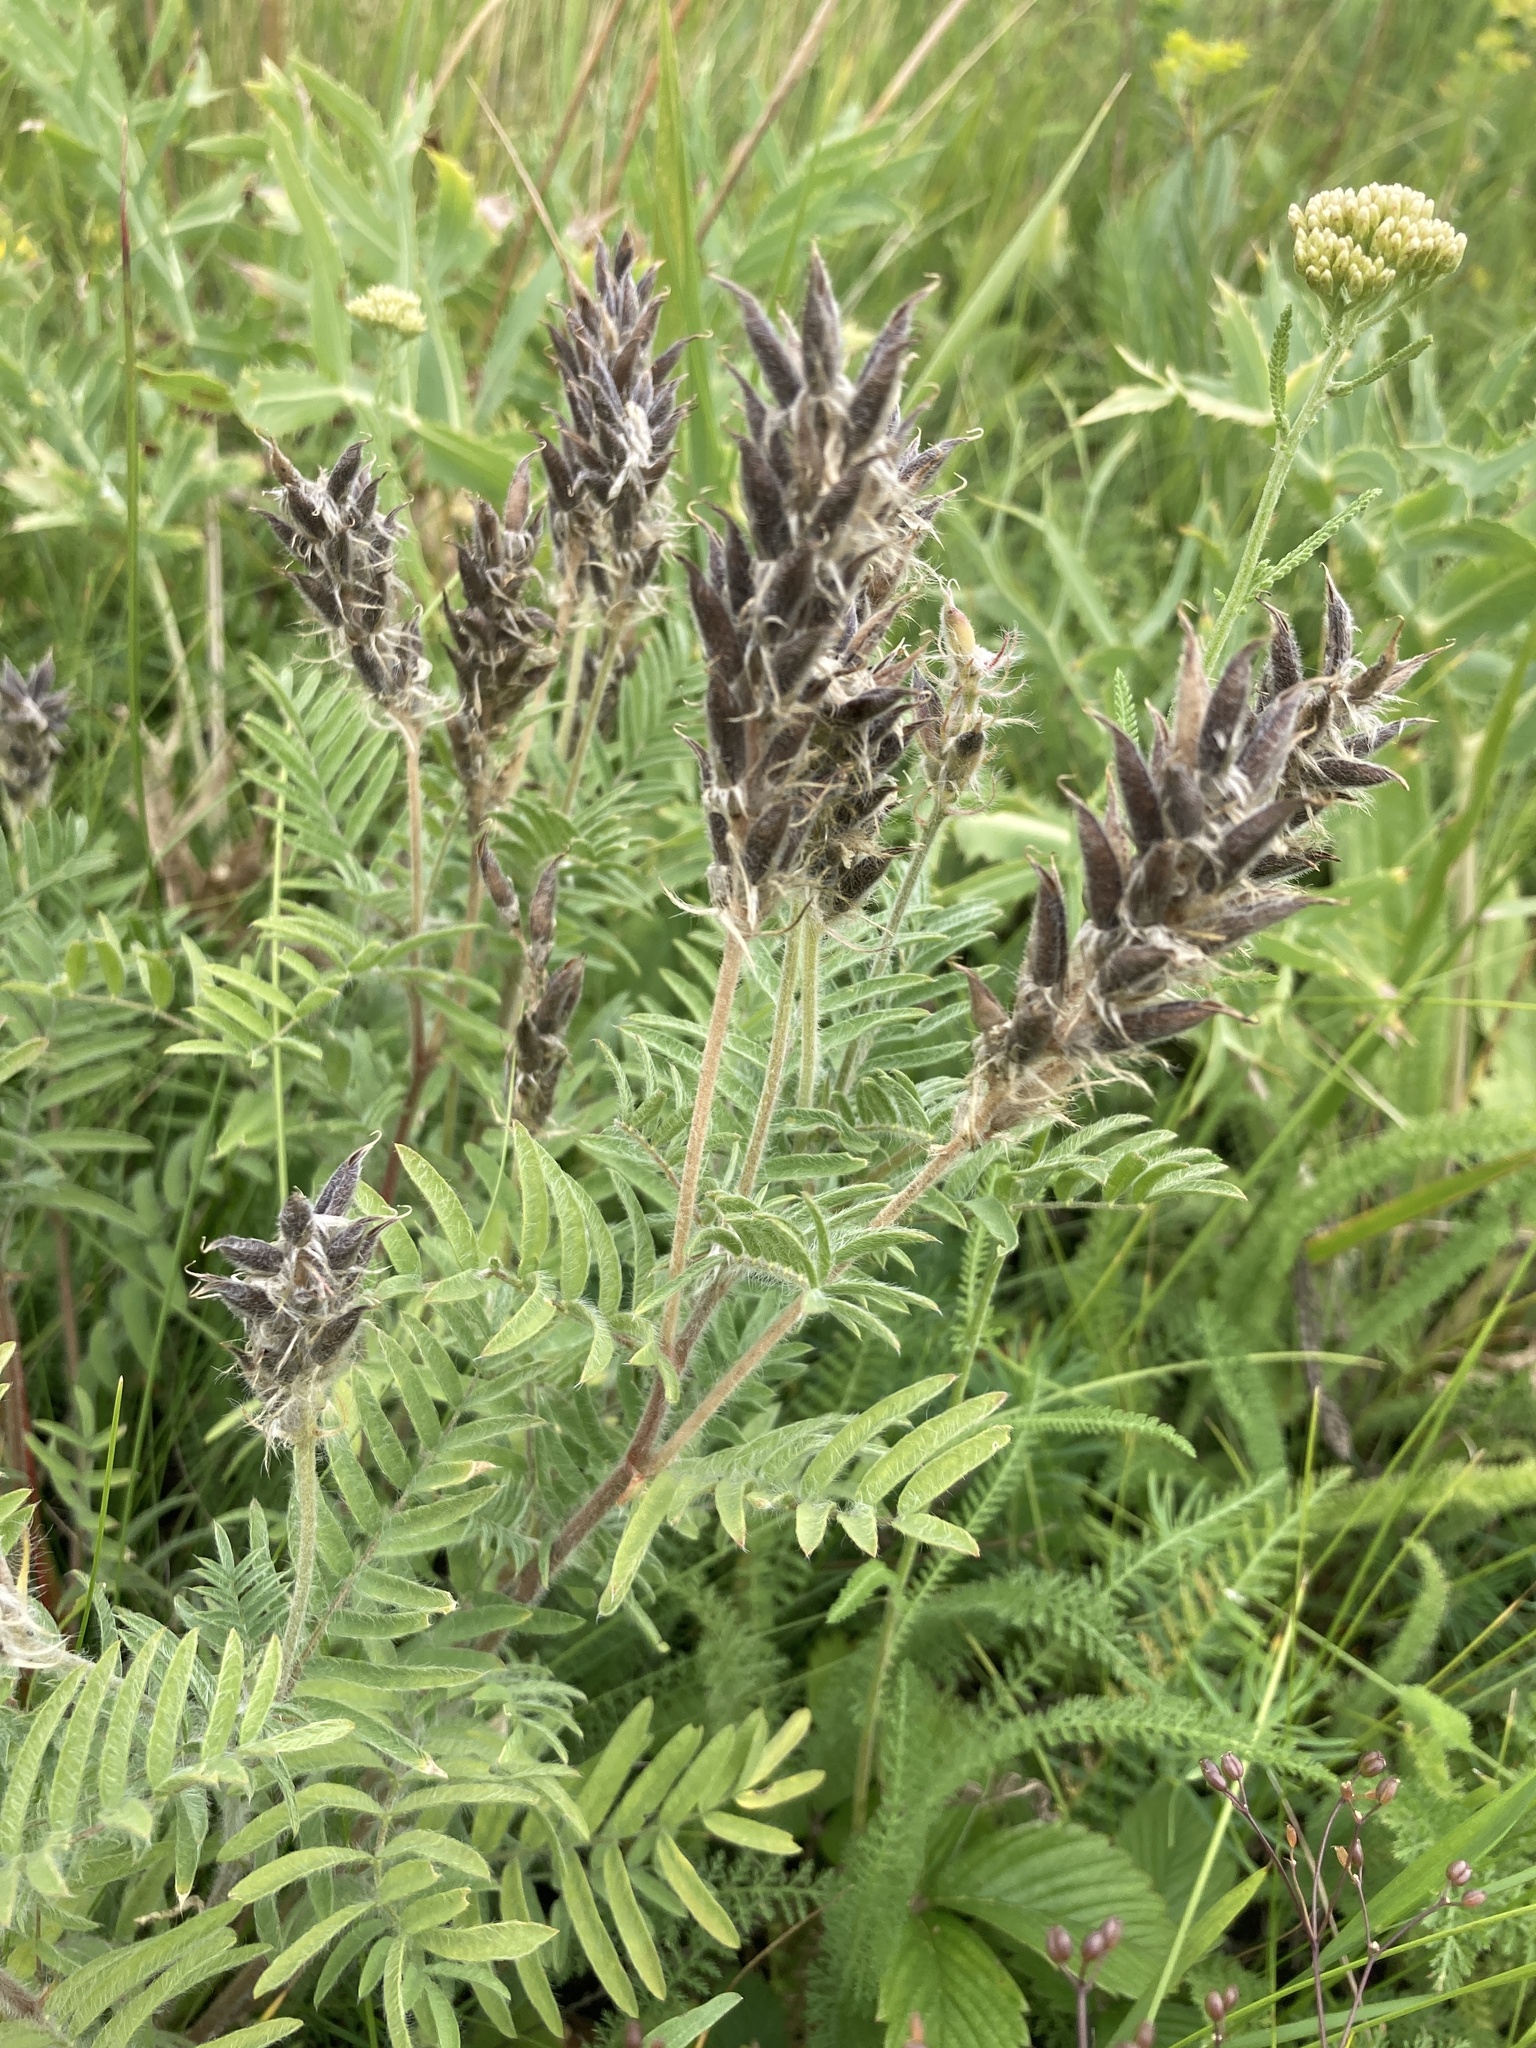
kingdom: Plantae
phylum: Tracheophyta
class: Magnoliopsida
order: Fabales
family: Fabaceae
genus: Oxytropis
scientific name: Oxytropis pilosa
